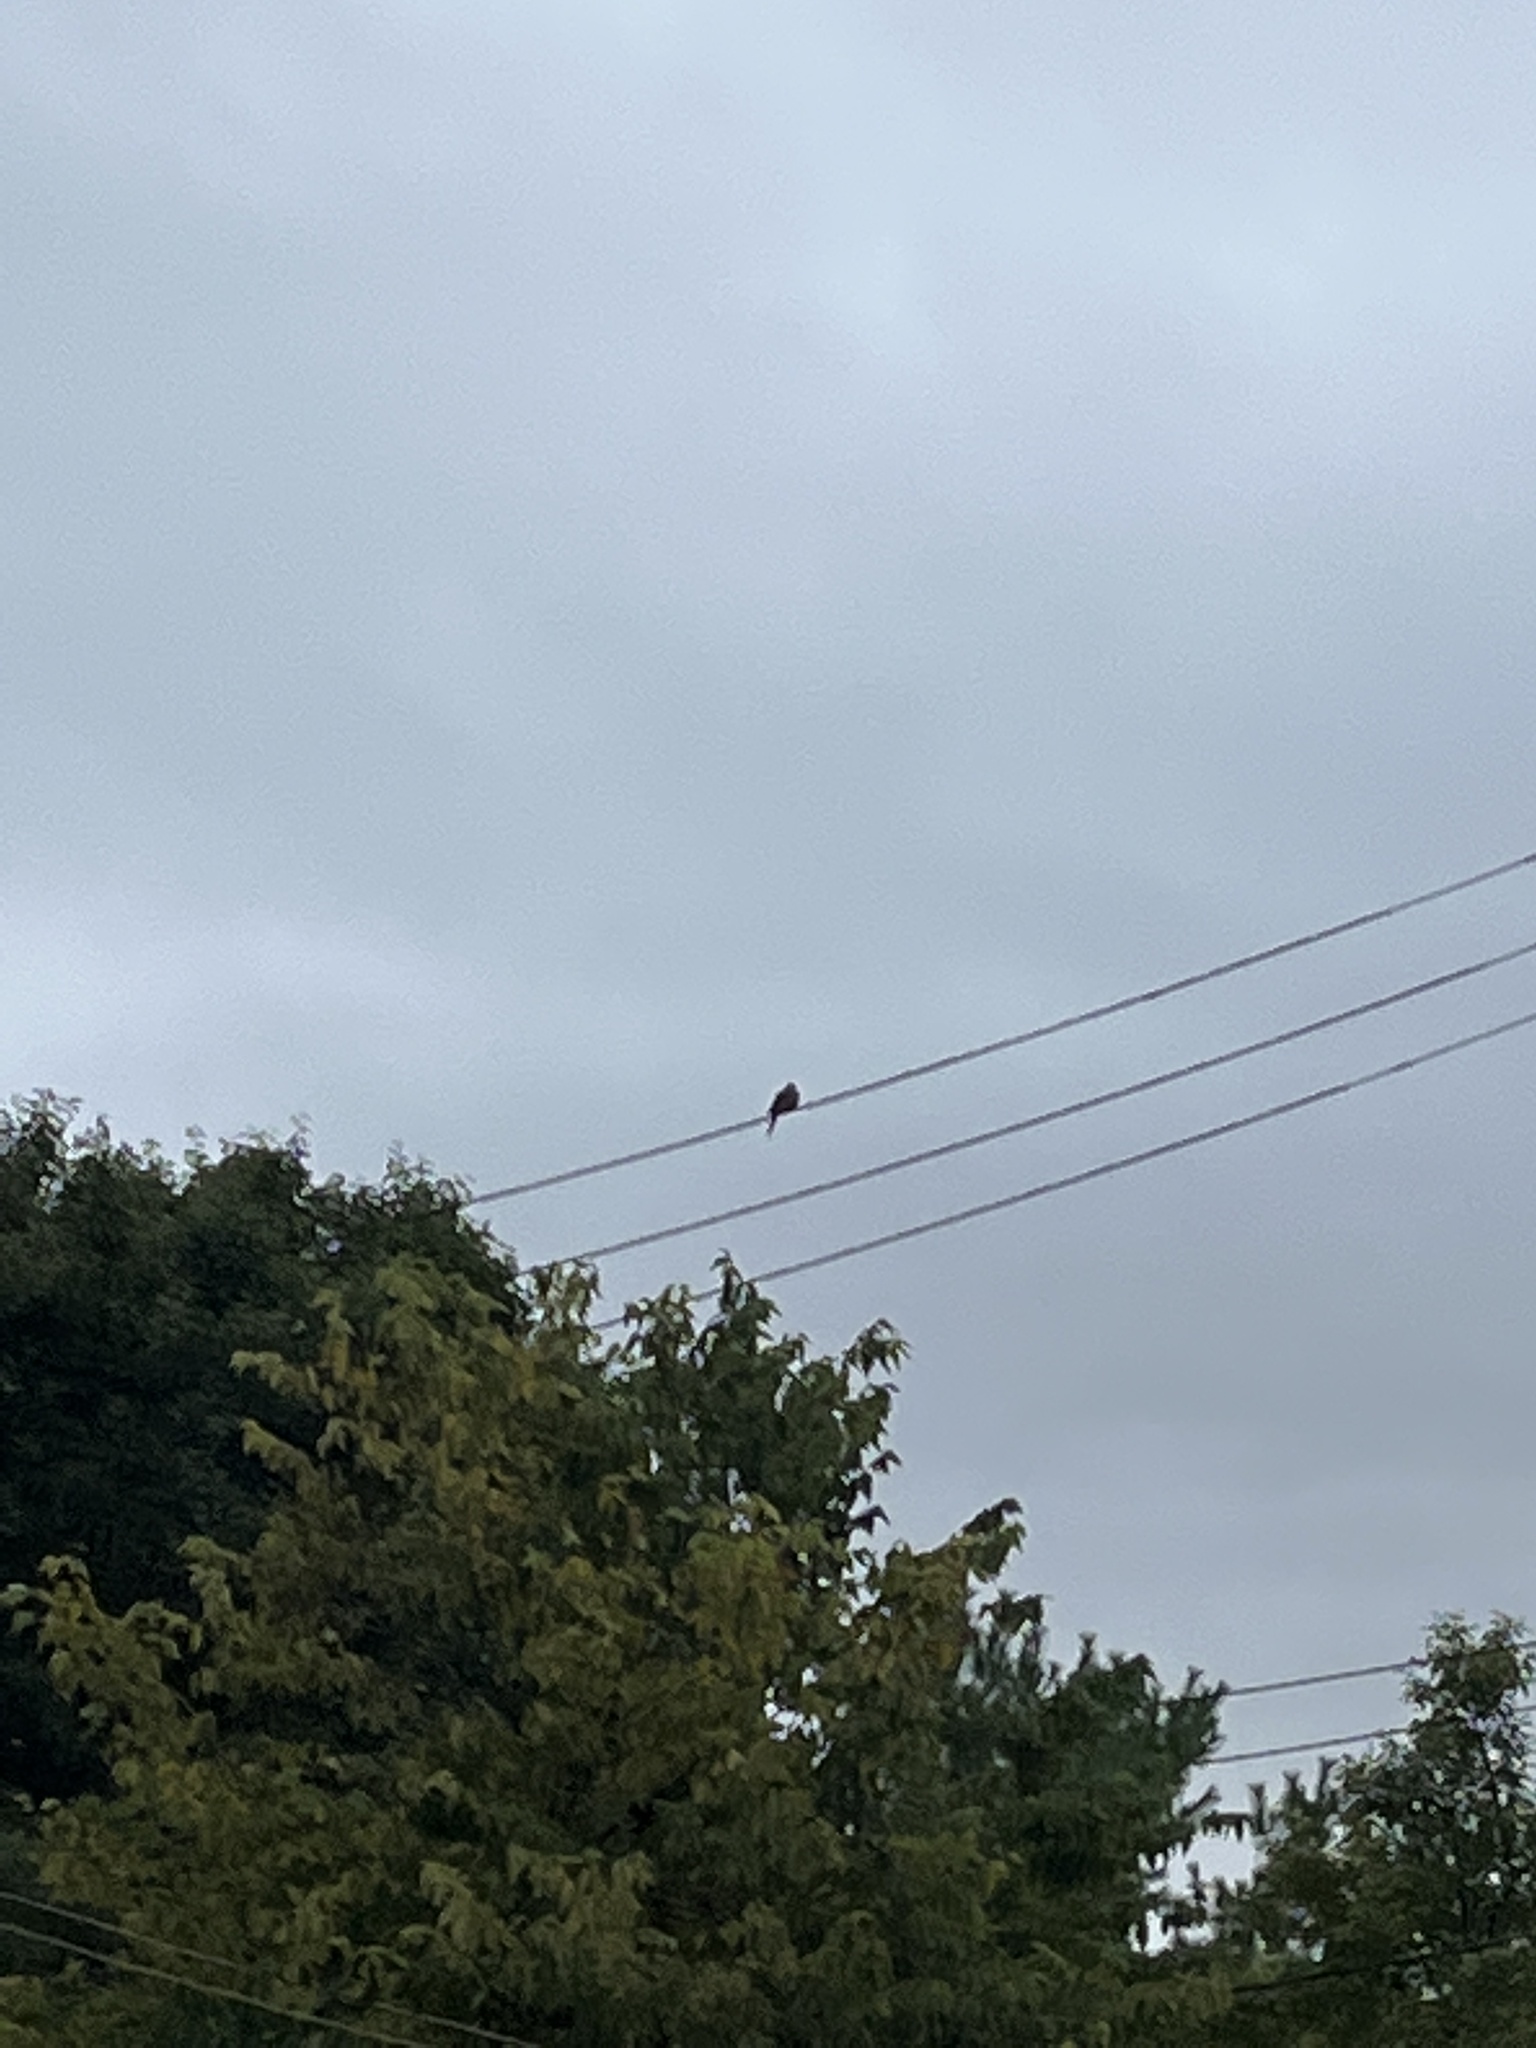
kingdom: Animalia
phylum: Chordata
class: Aves
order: Columbiformes
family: Columbidae
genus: Zenaida
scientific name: Zenaida macroura
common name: Mourning dove
